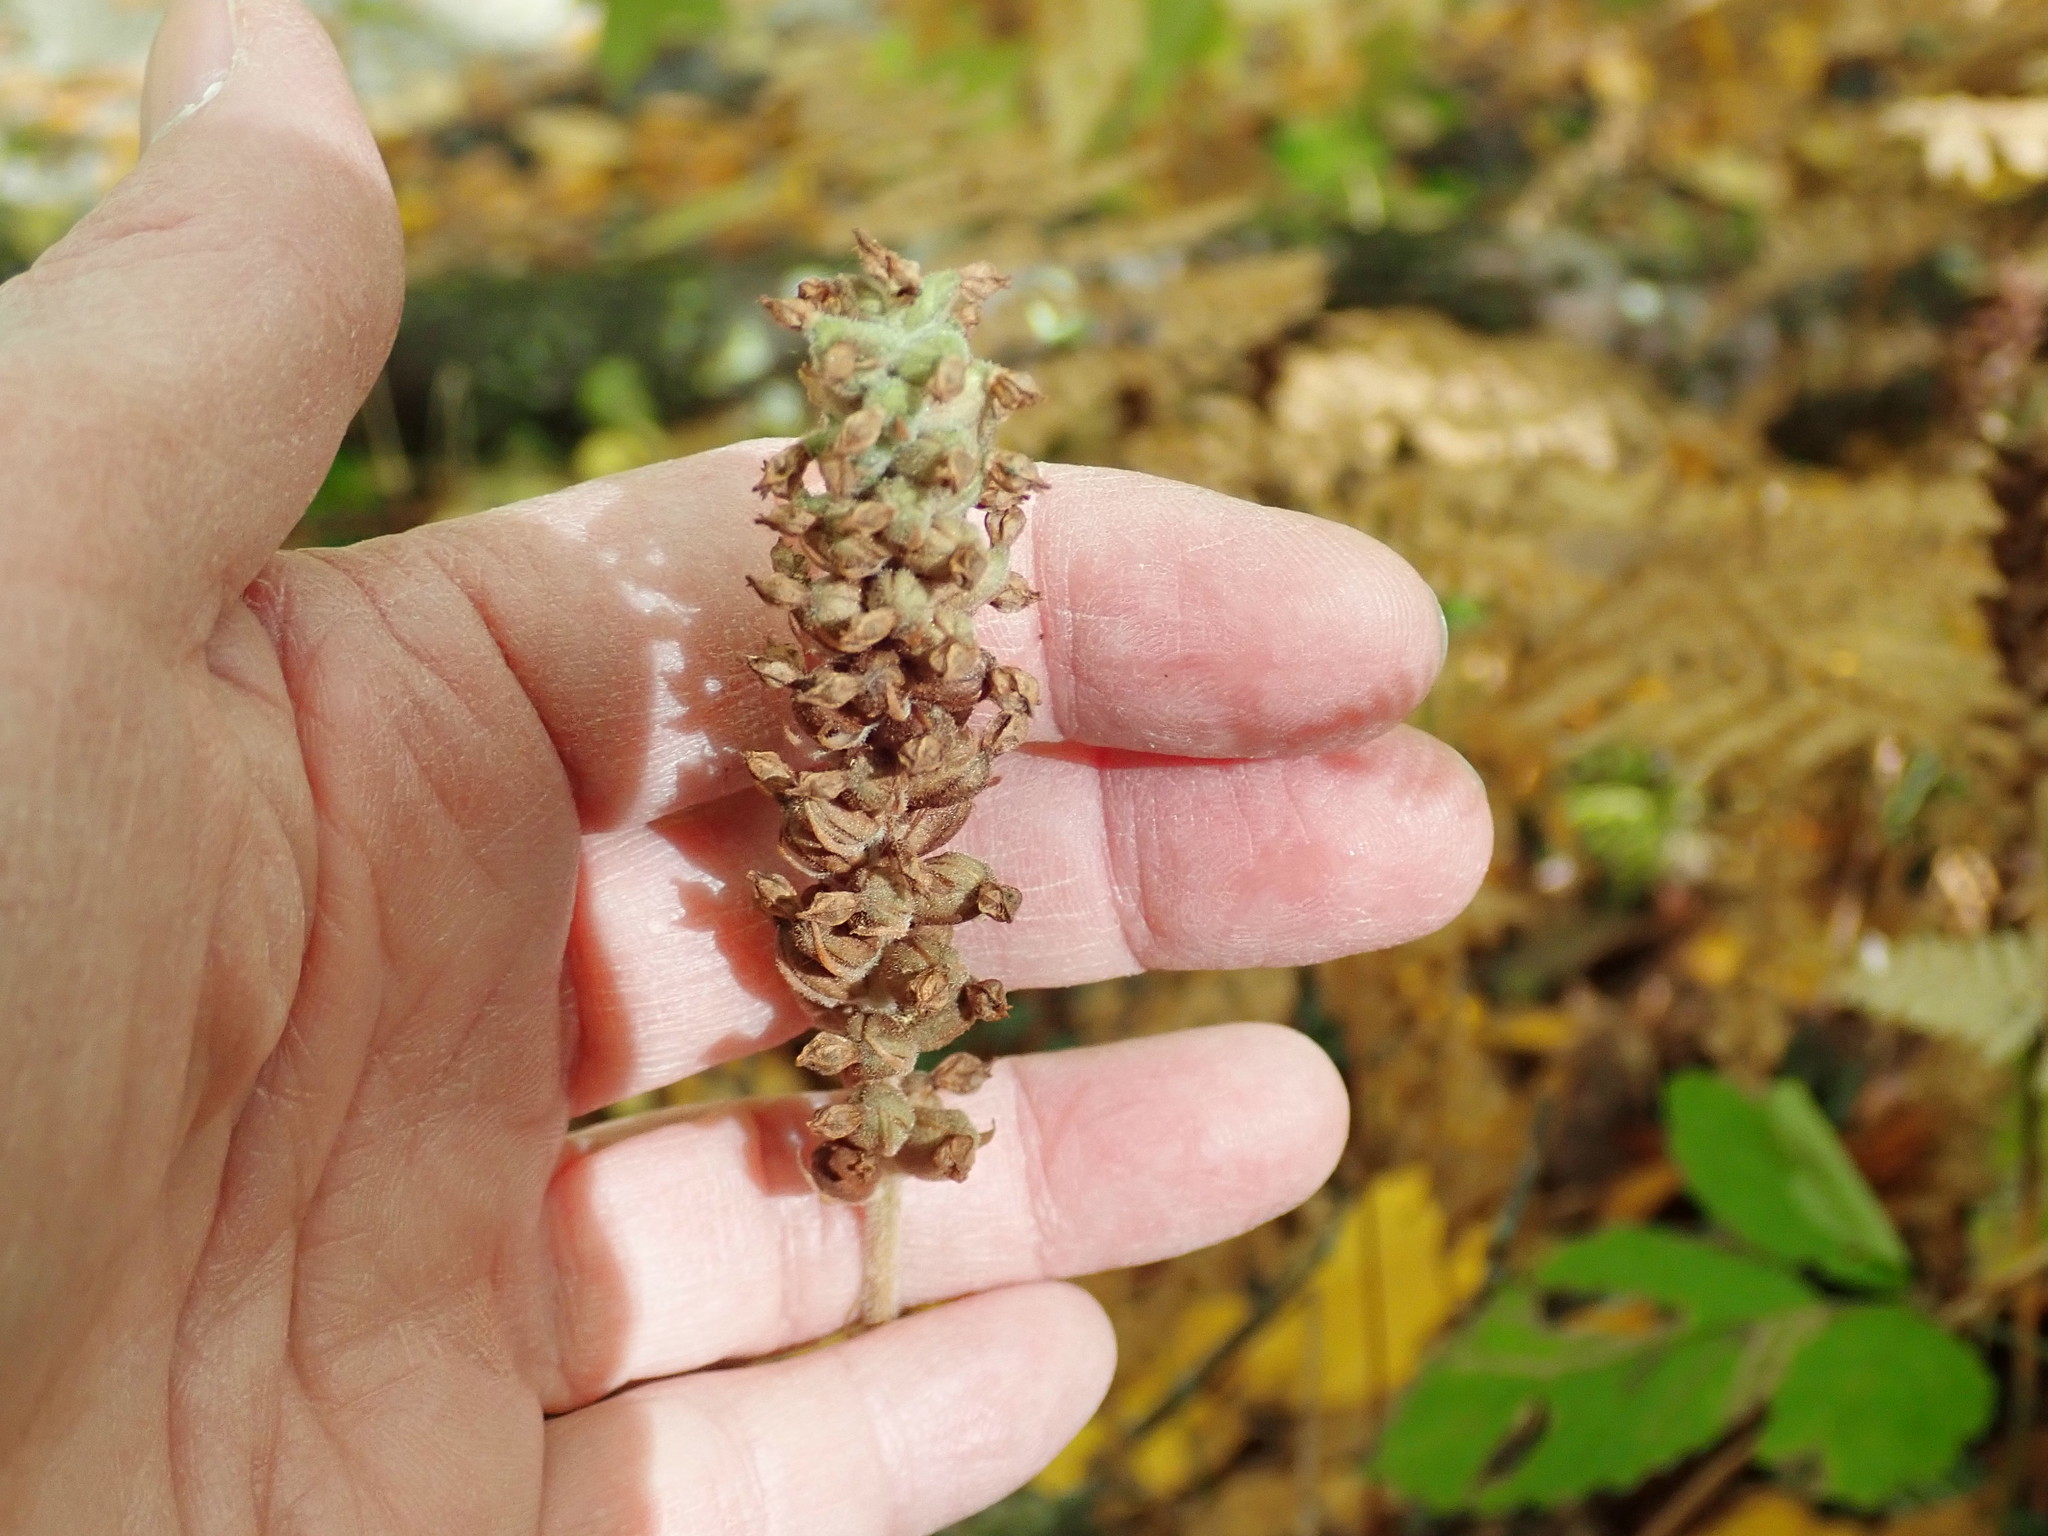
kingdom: Plantae
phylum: Tracheophyta
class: Liliopsida
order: Asparagales
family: Orchidaceae
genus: Goodyera
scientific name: Goodyera pubescens
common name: Downy rattlesnake-plantain
